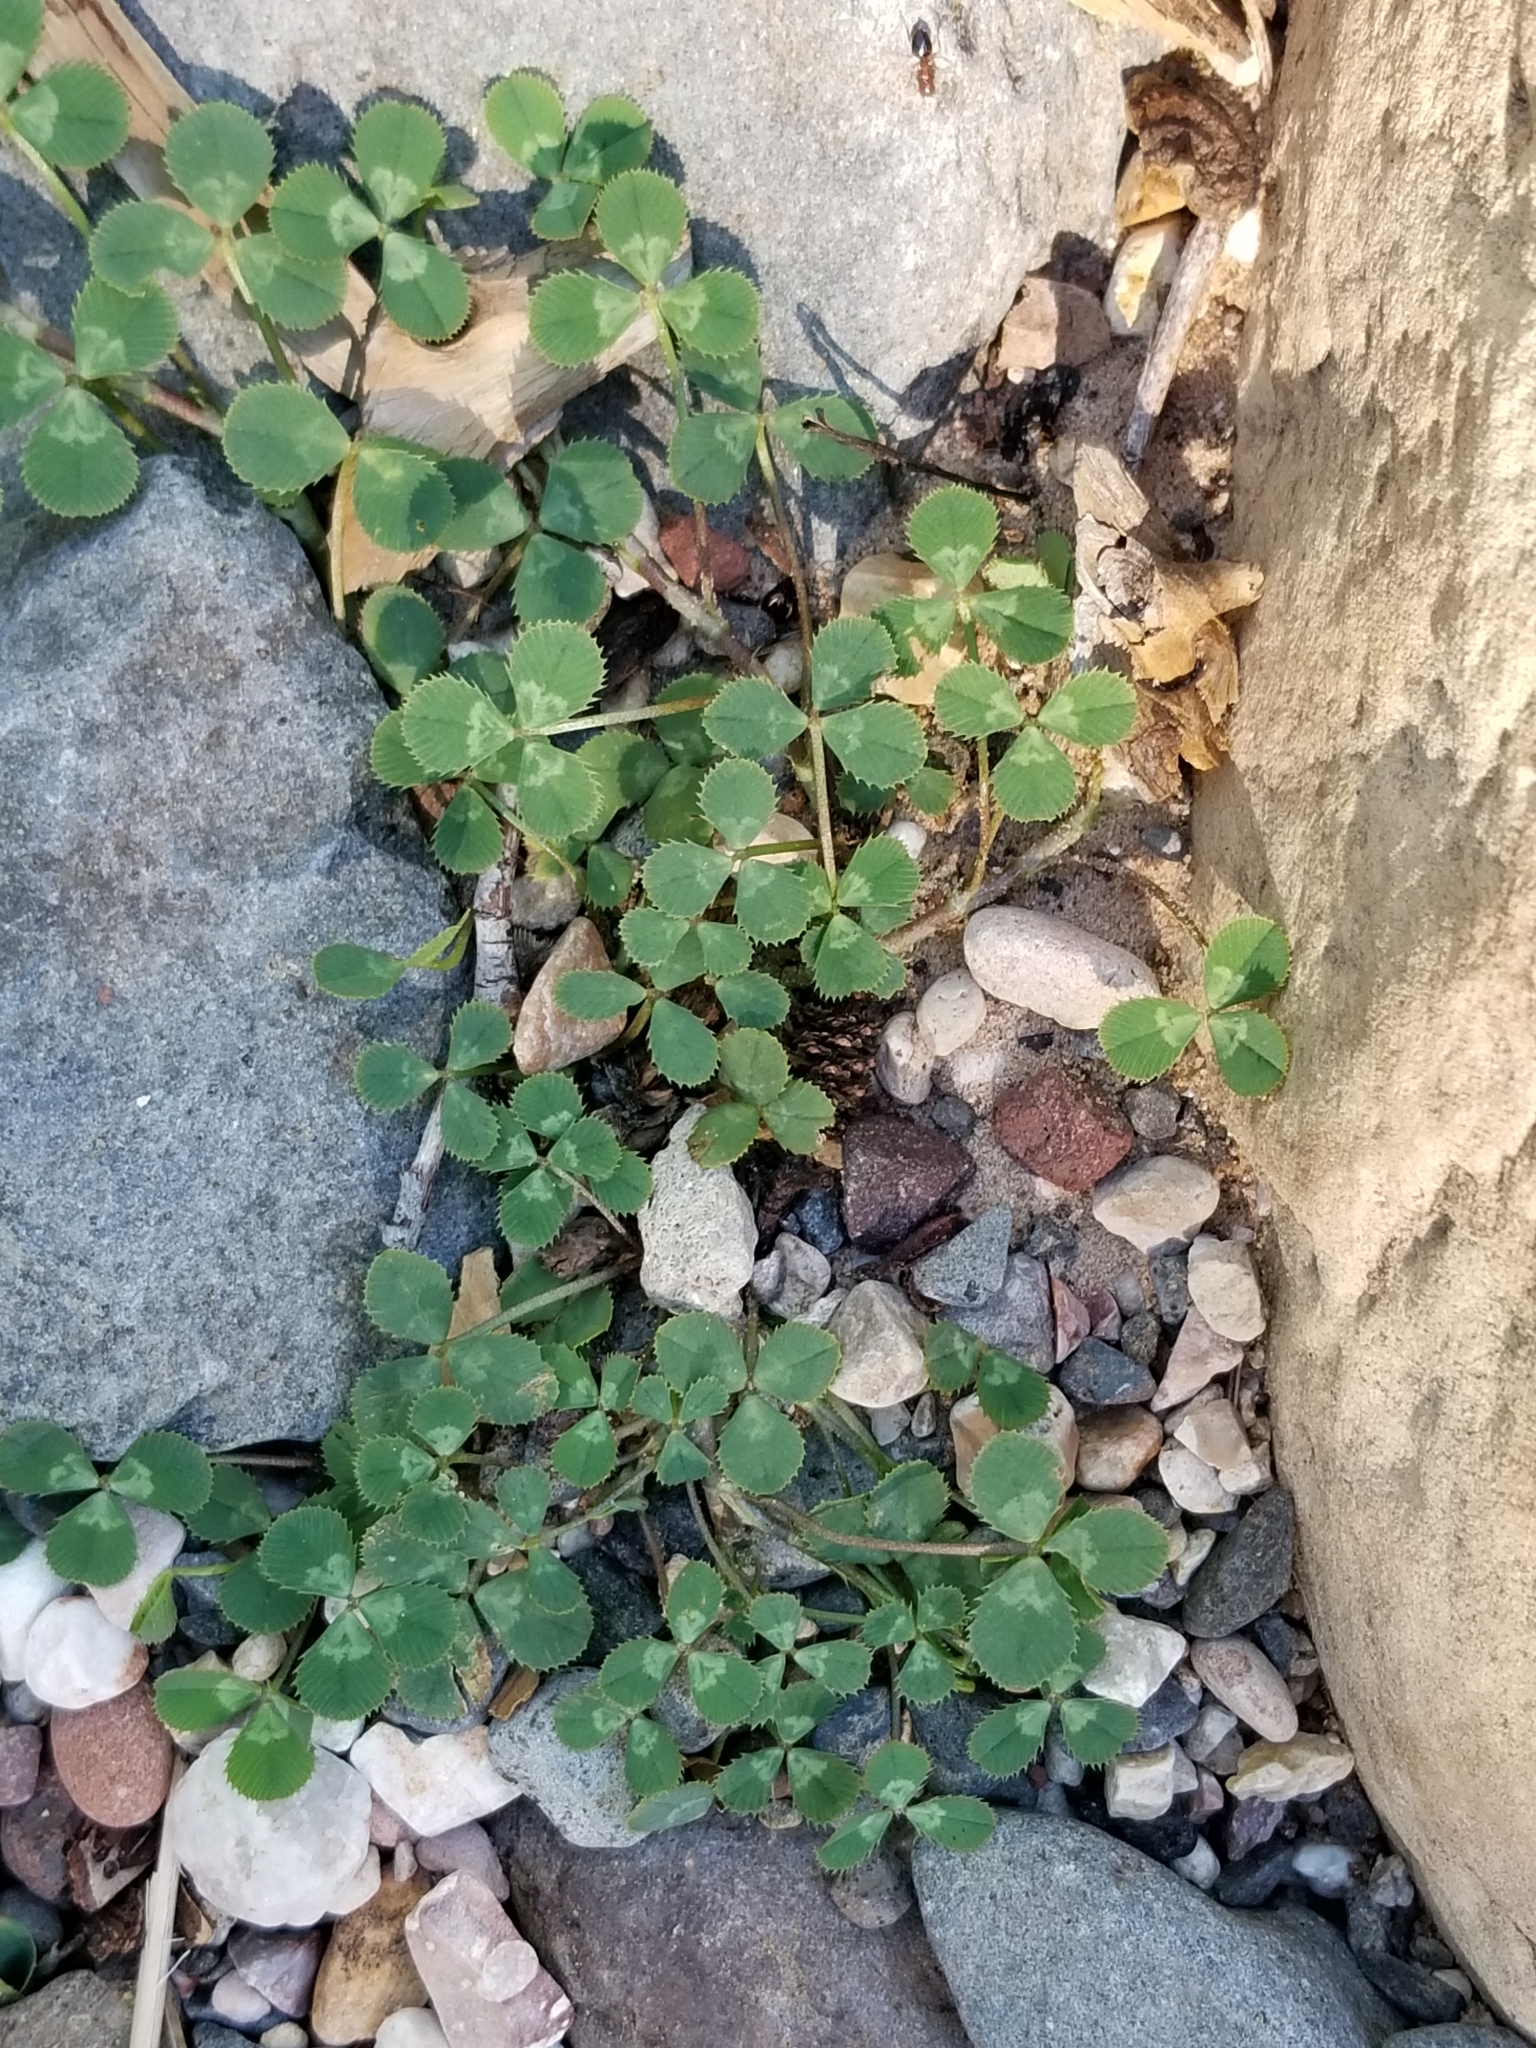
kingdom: Plantae
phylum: Tracheophyta
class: Magnoliopsida
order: Fabales
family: Fabaceae
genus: Trifolium
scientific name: Trifolium repens
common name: White clover
